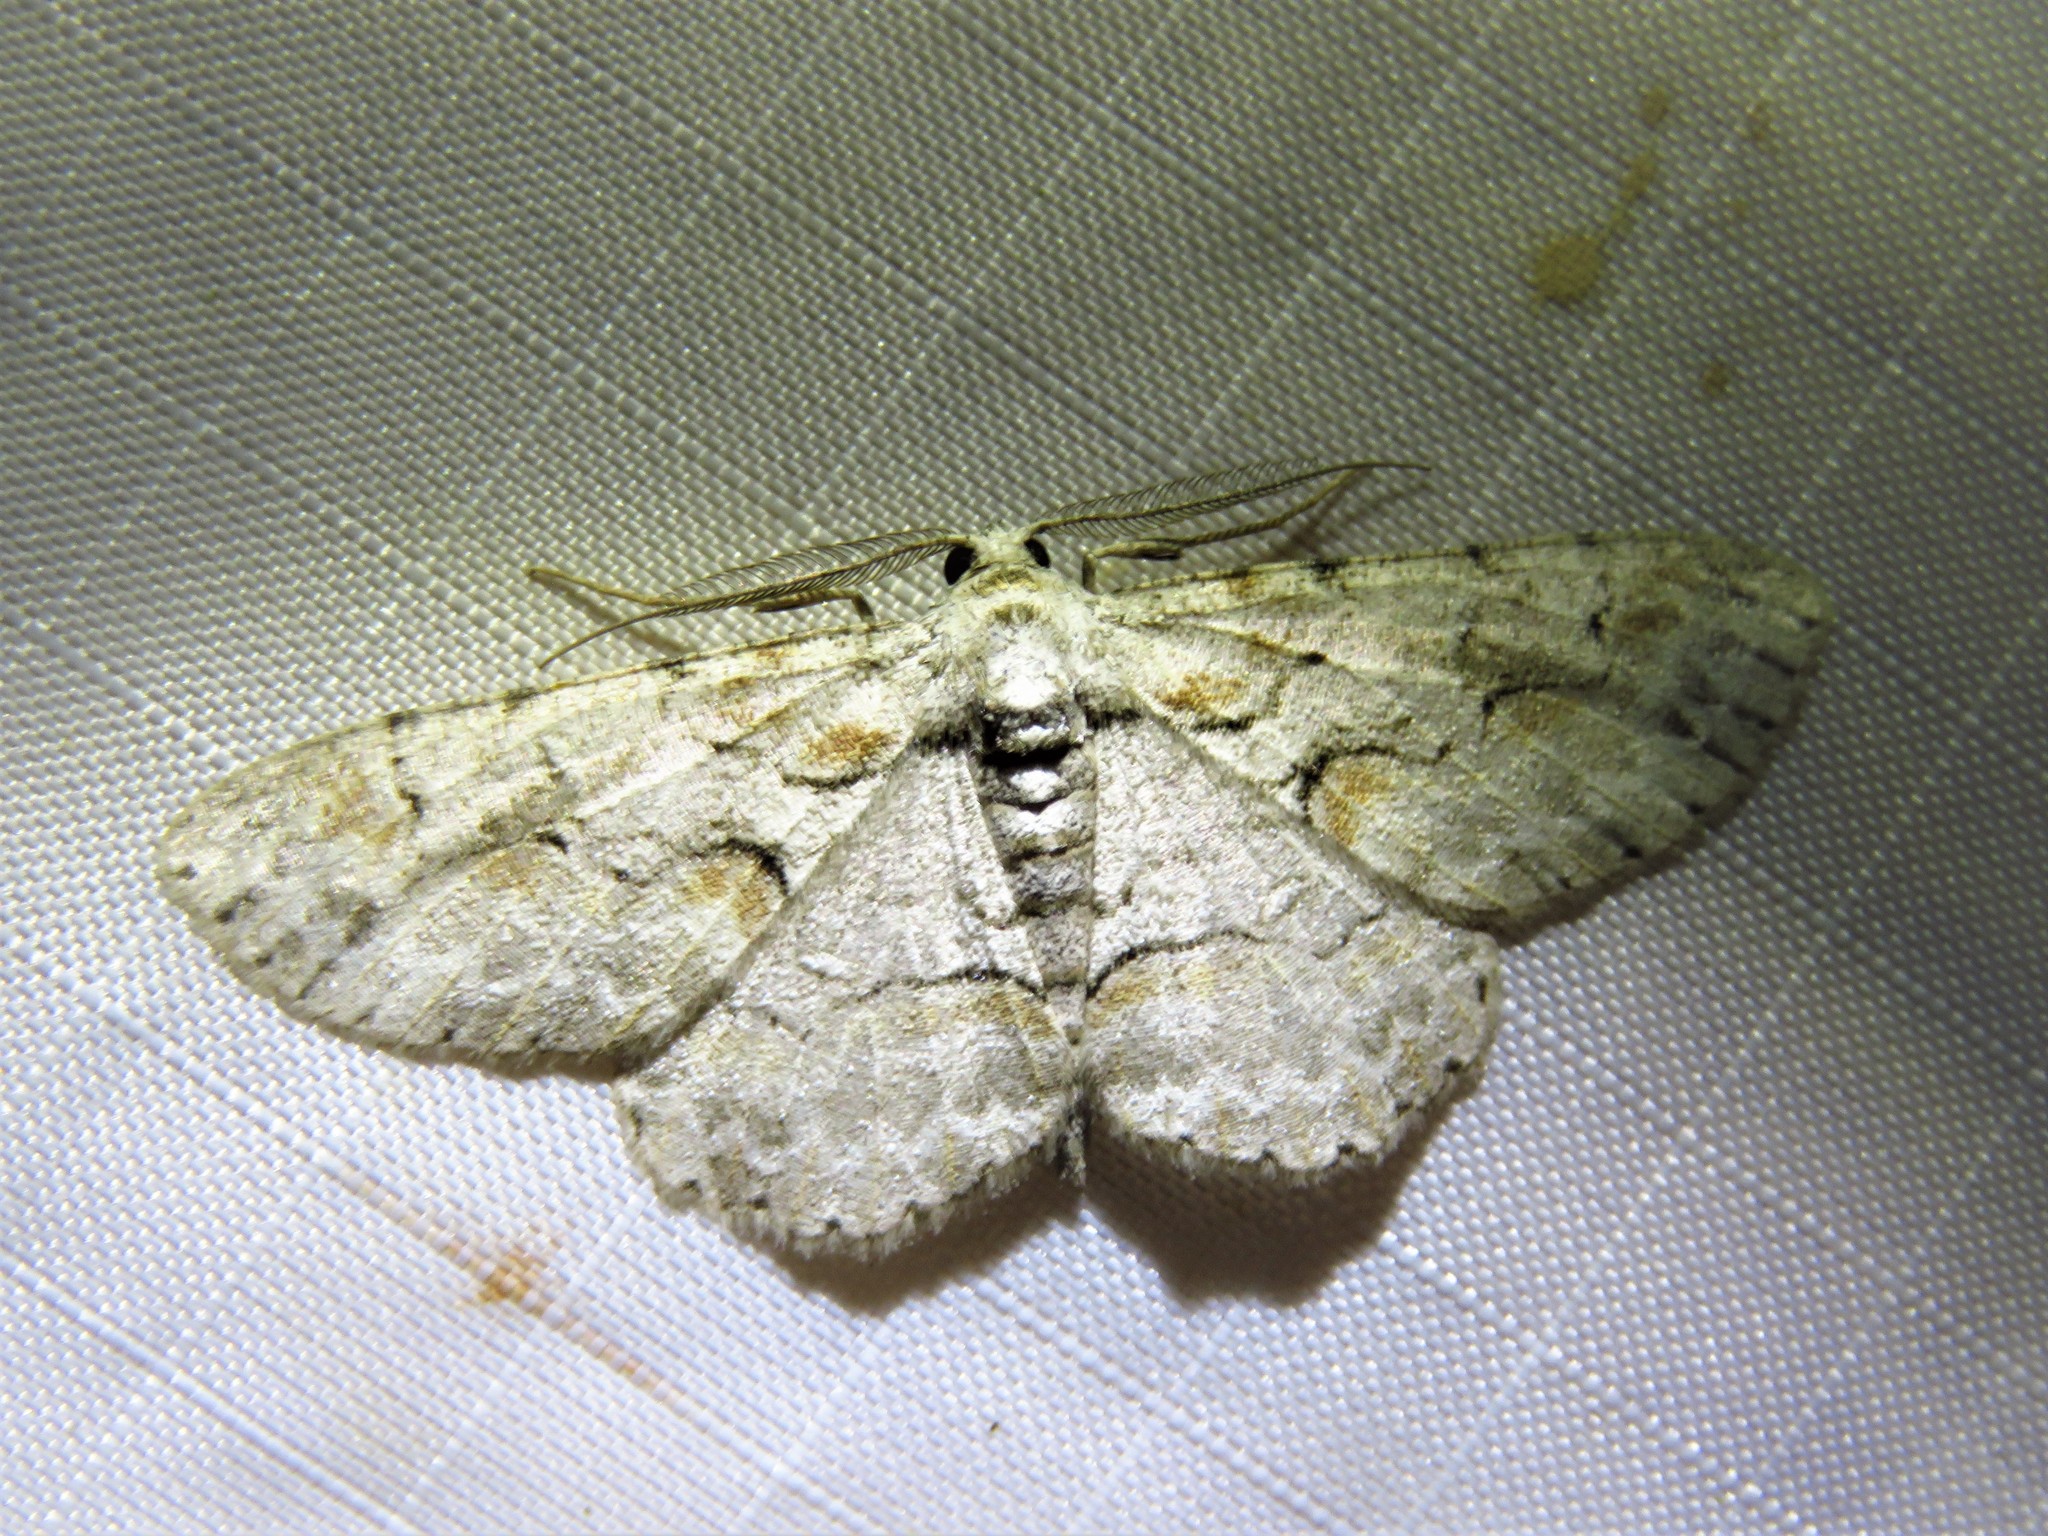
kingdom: Animalia
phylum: Arthropoda
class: Insecta
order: Lepidoptera
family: Geometridae
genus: Iridopsis
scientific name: Iridopsis defectaria
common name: Brown-shaded gray
